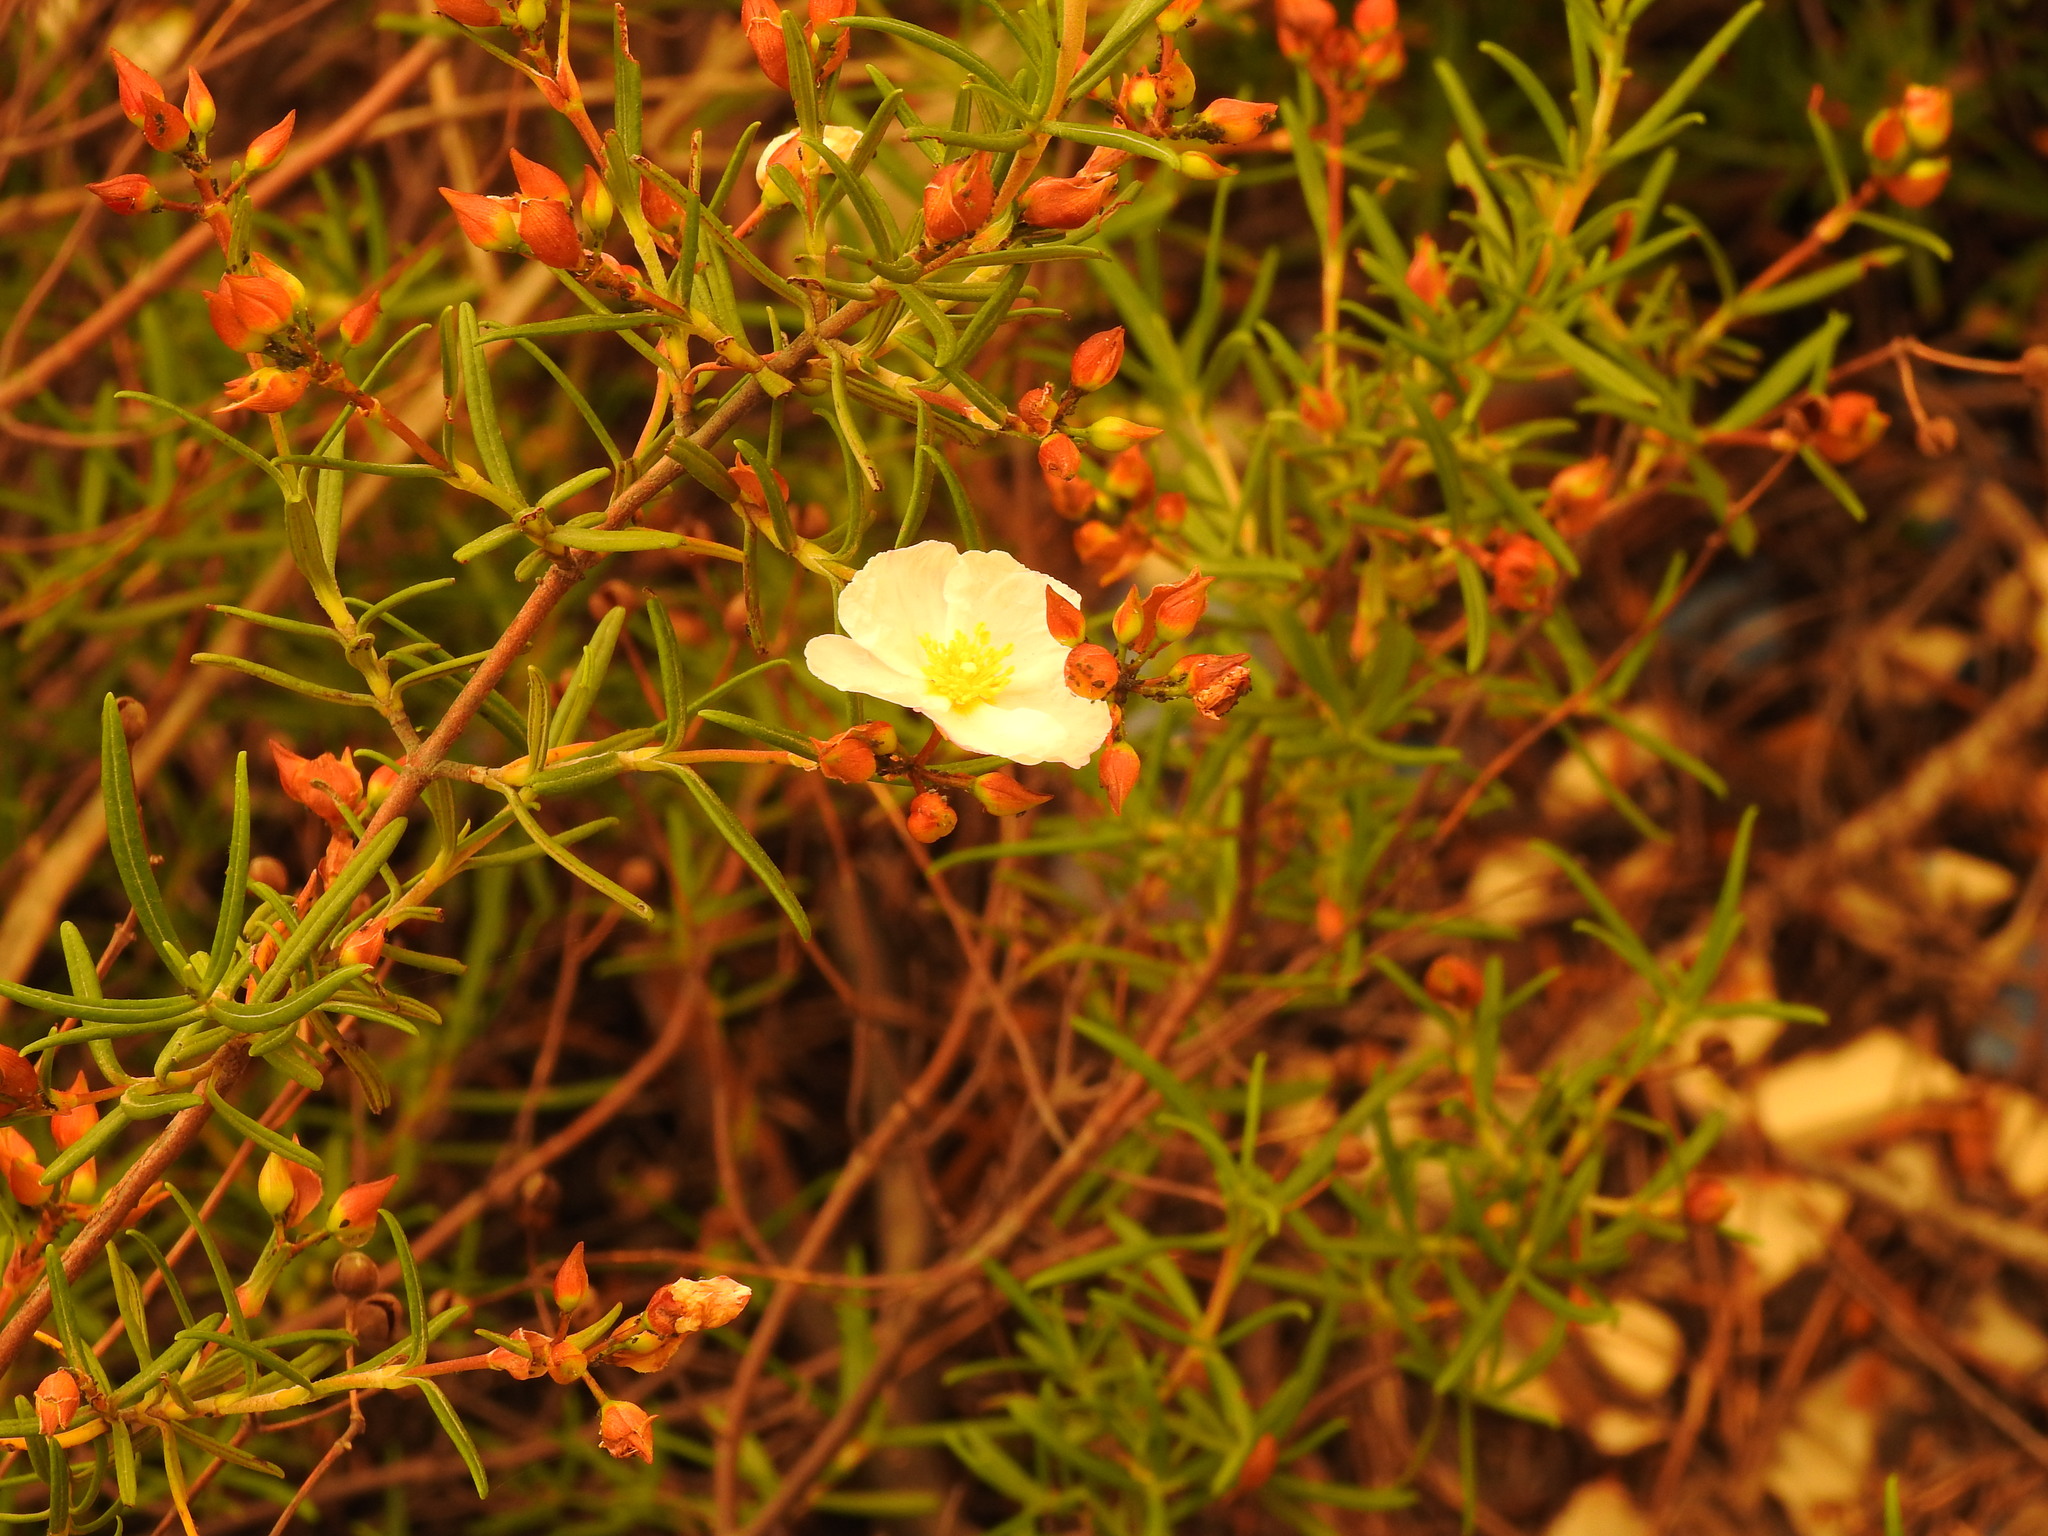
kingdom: Plantae
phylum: Tracheophyta
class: Magnoliopsida
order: Malvales
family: Cistaceae
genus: Cistus
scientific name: Cistus libanotis
